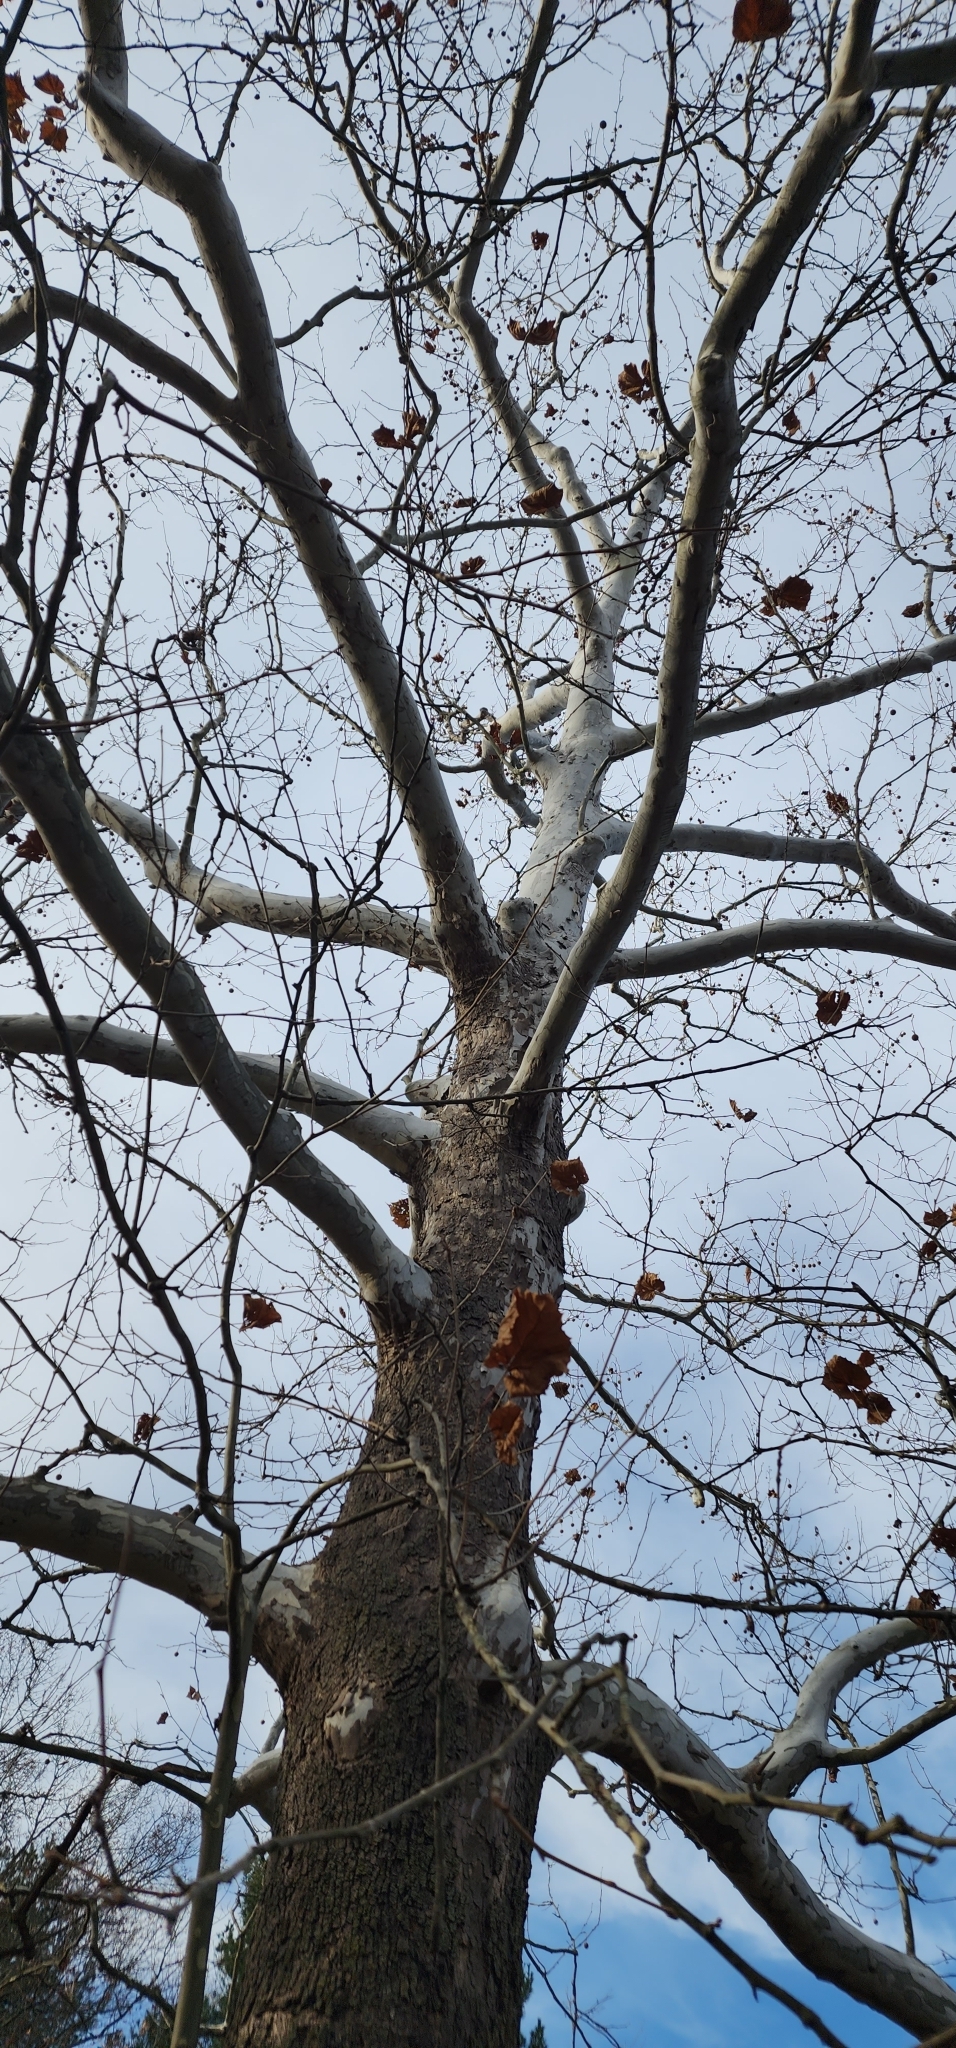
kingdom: Plantae
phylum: Tracheophyta
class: Magnoliopsida
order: Proteales
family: Platanaceae
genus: Platanus
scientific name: Platanus occidentalis
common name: American sycamore
